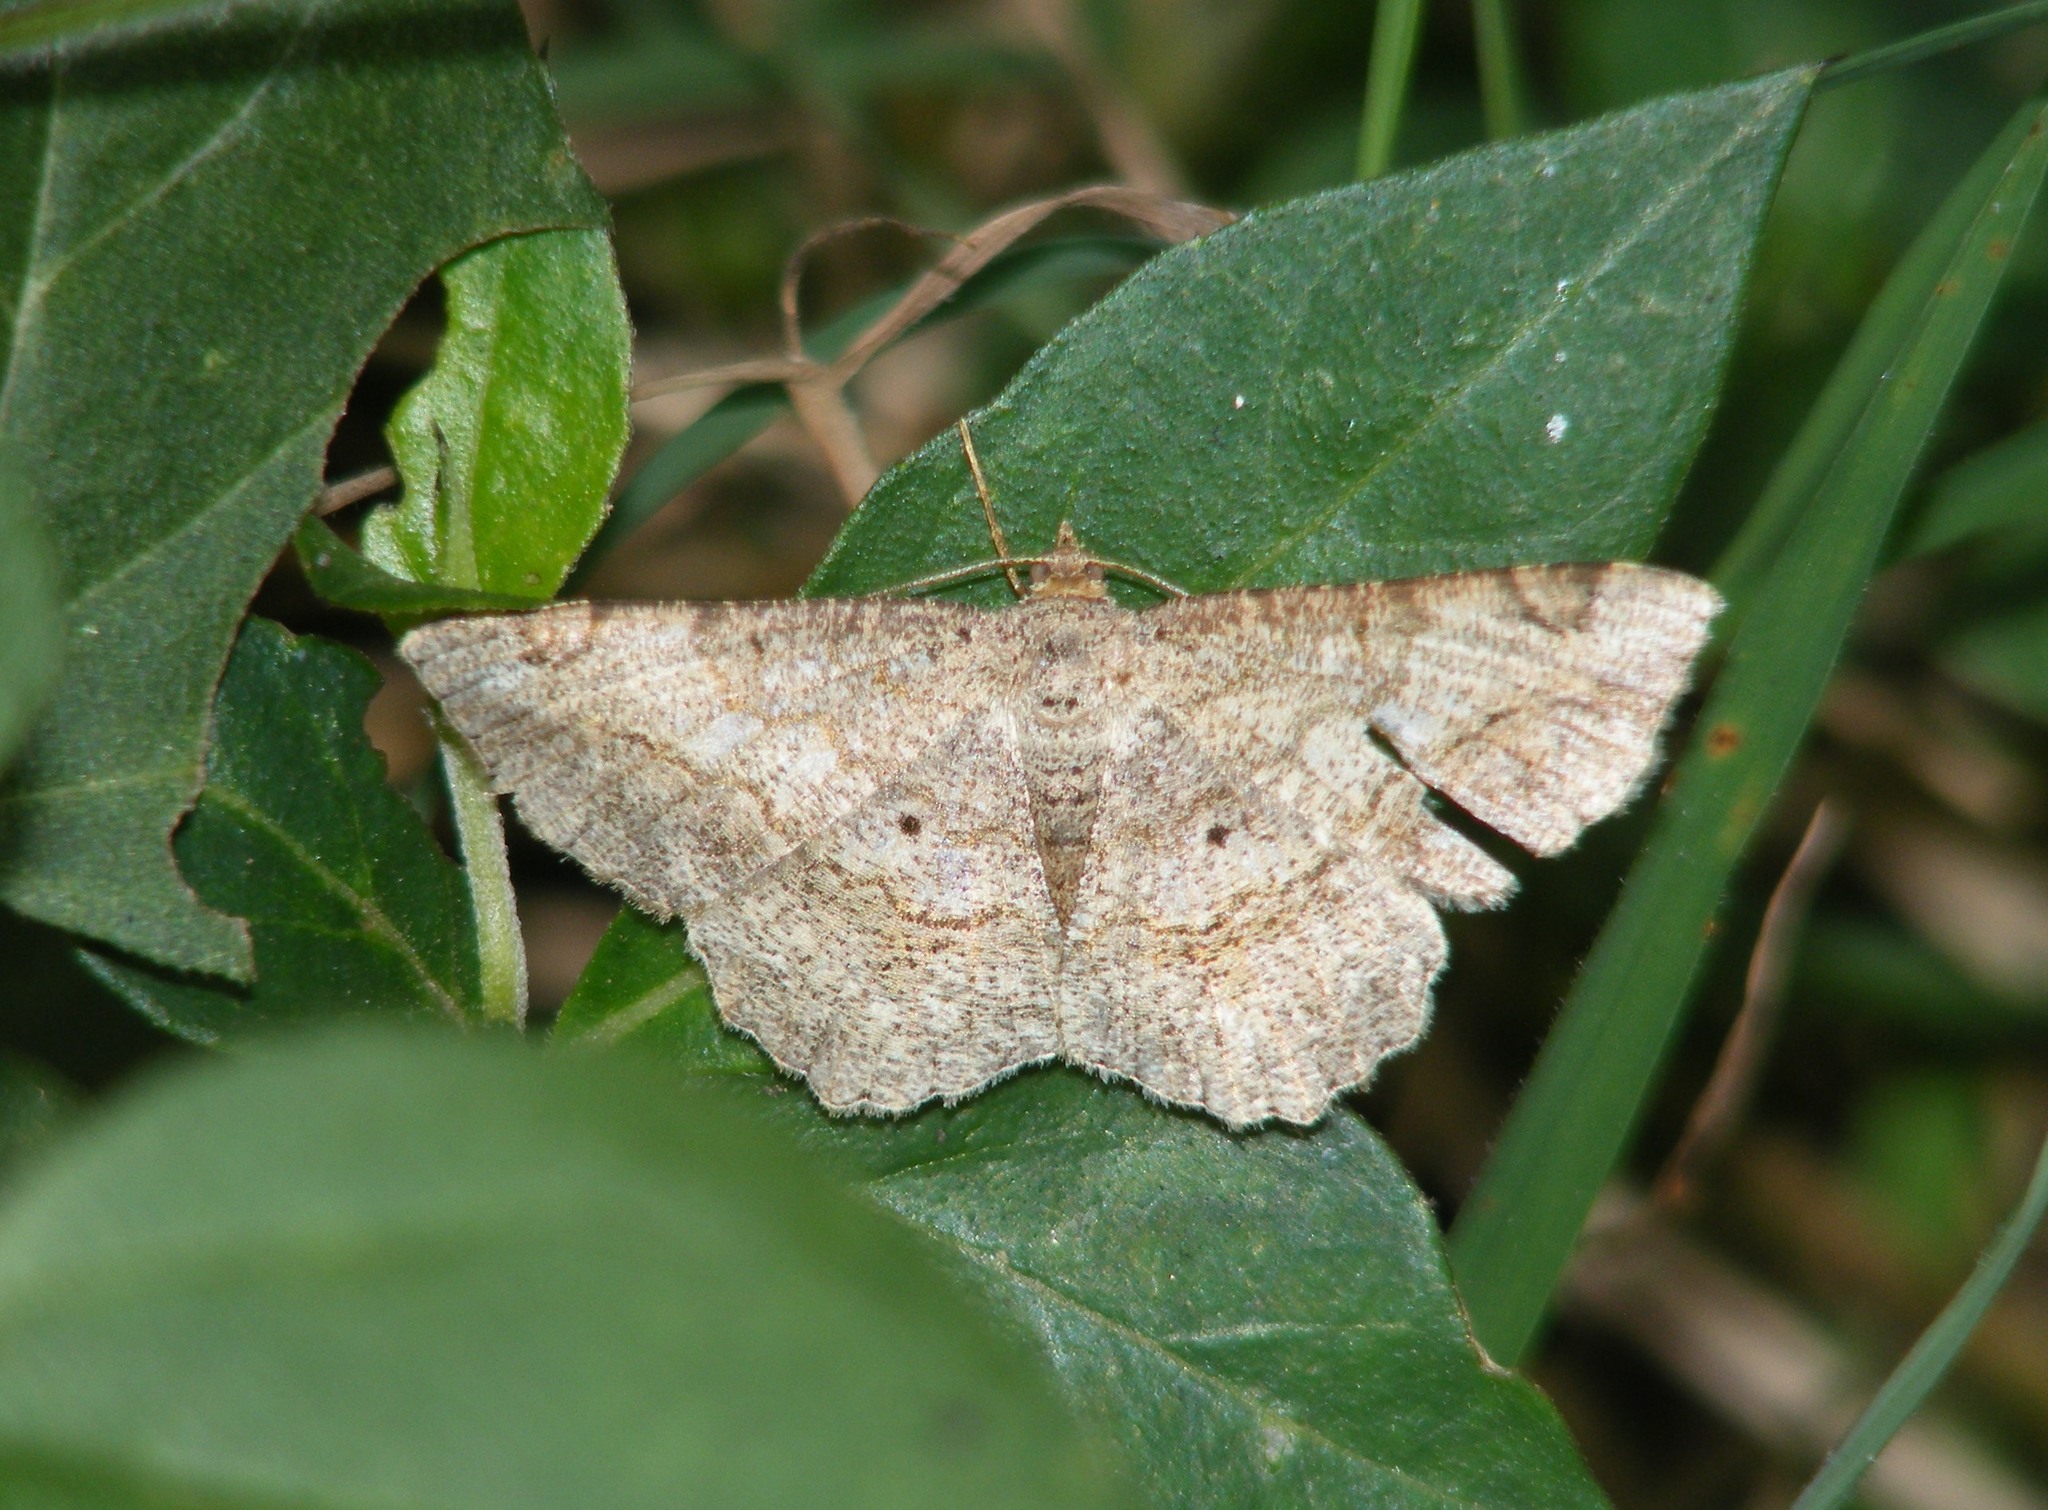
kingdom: Animalia
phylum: Arthropoda
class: Insecta
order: Lepidoptera
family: Geometridae
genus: Chiasmia
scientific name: Chiasmia emersaria
